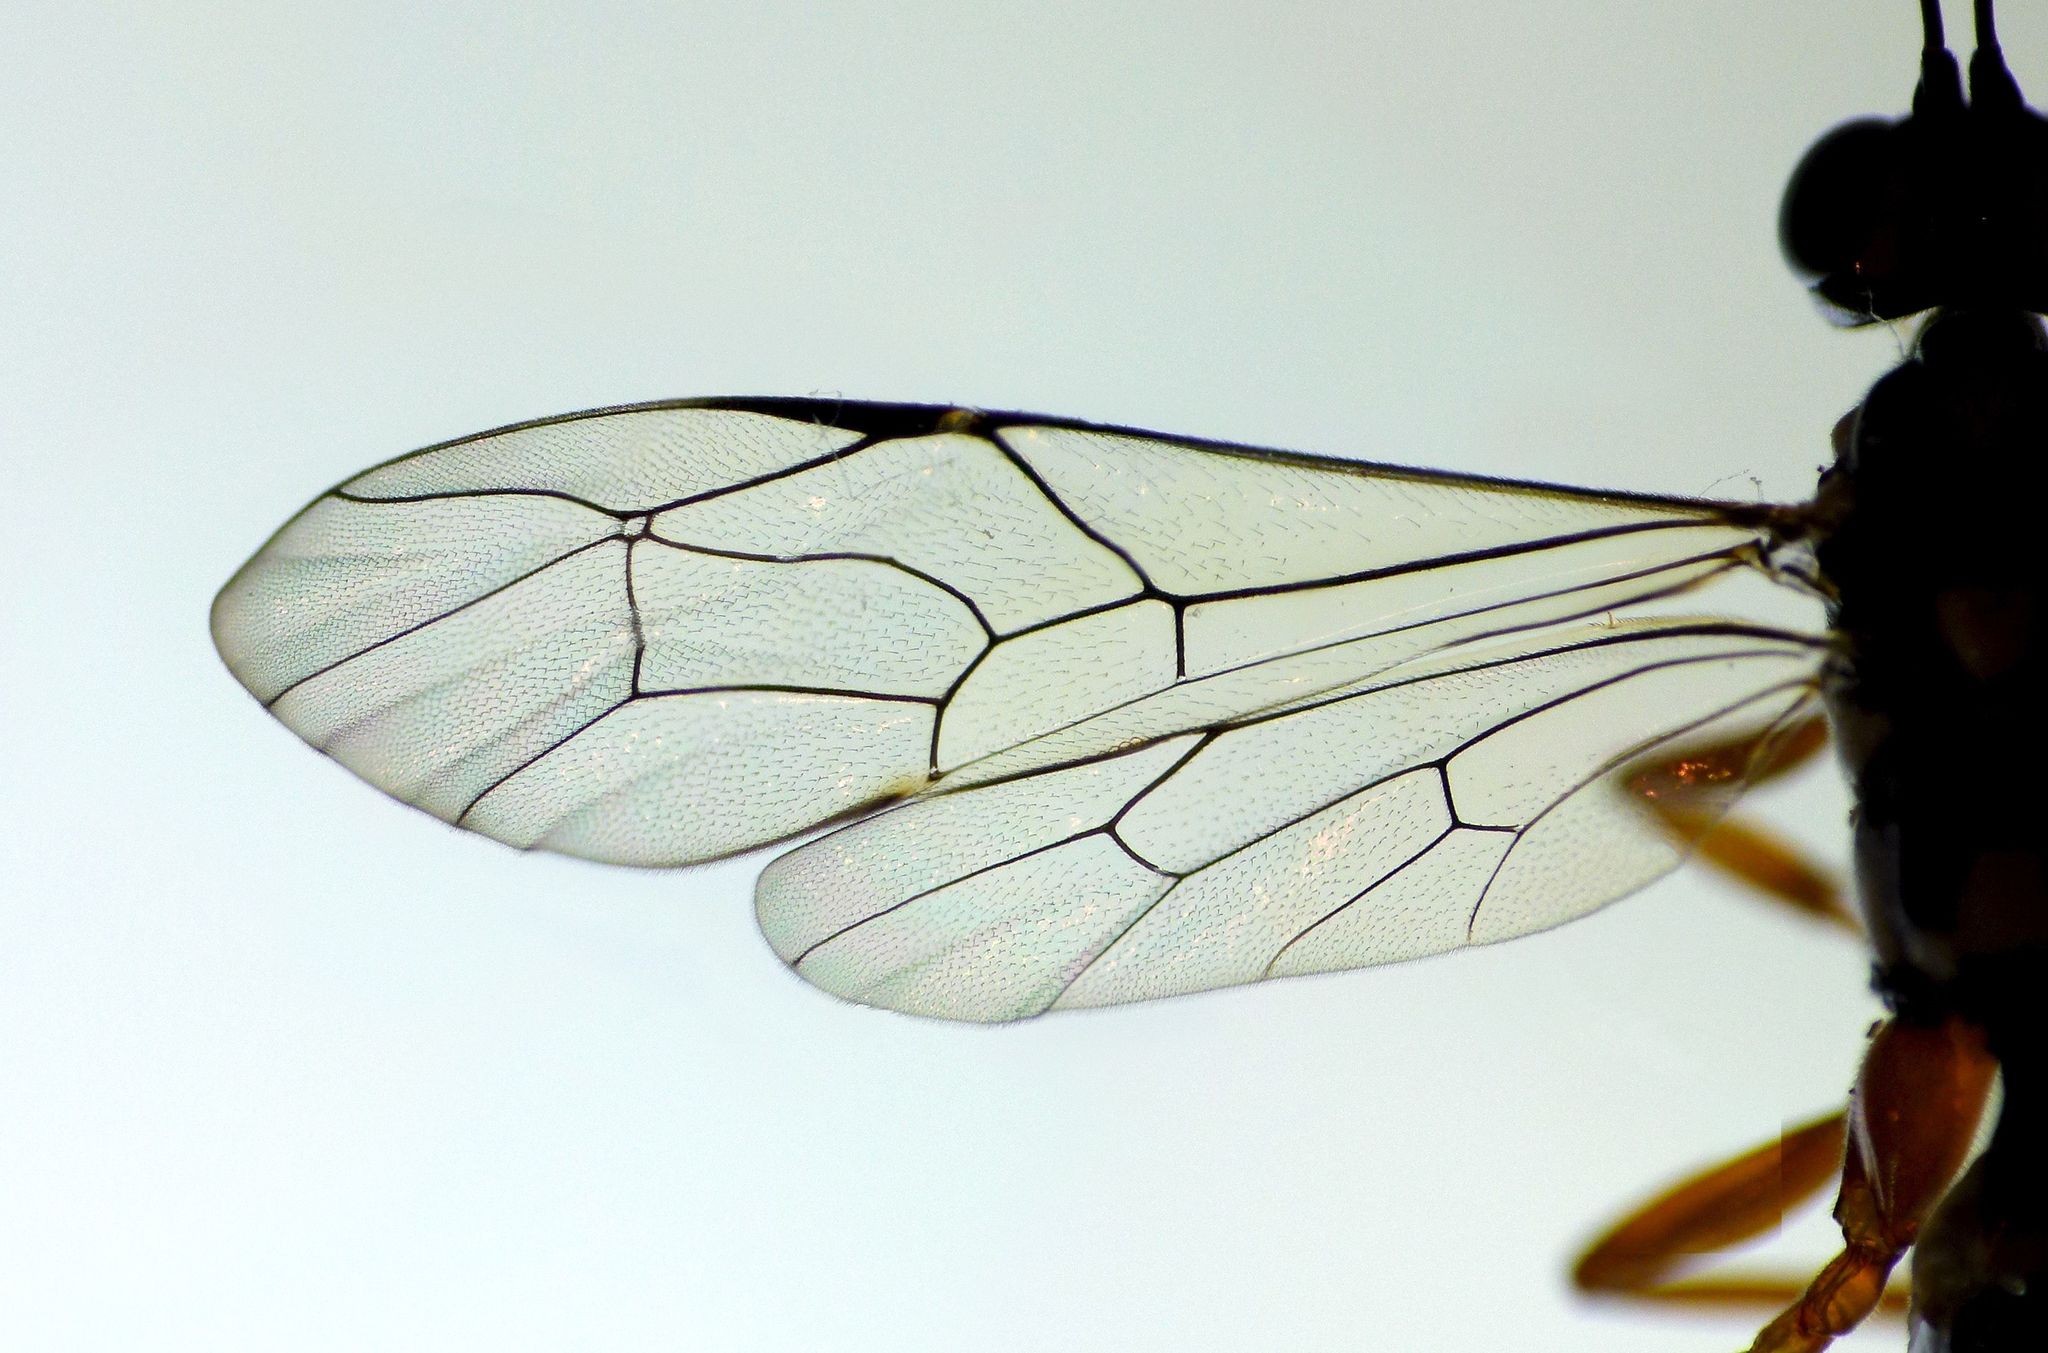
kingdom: Animalia
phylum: Arthropoda
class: Insecta
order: Hymenoptera
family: Ichneumonidae
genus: Xanthocryptus
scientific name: Xanthocryptus novozealandicus
